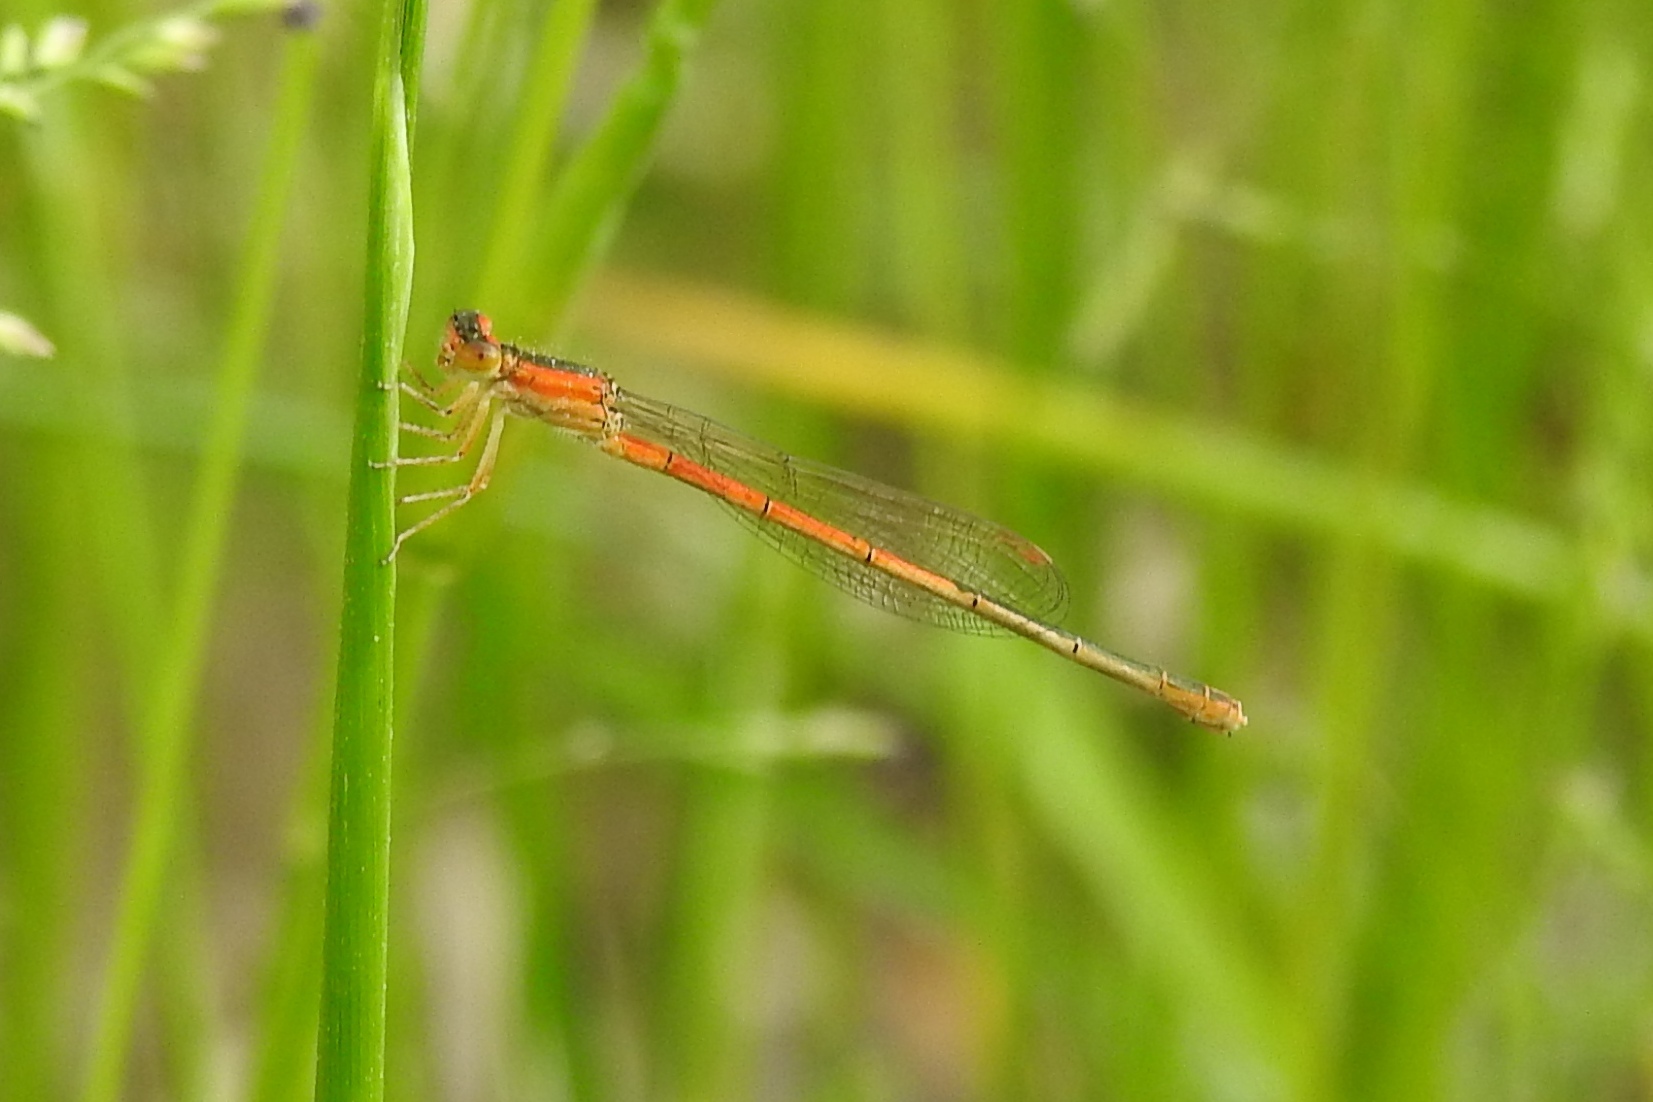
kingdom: Animalia
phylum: Arthropoda
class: Insecta
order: Odonata
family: Coenagrionidae
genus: Ischnura
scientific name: Ischnura hastata
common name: Citrine forktail
